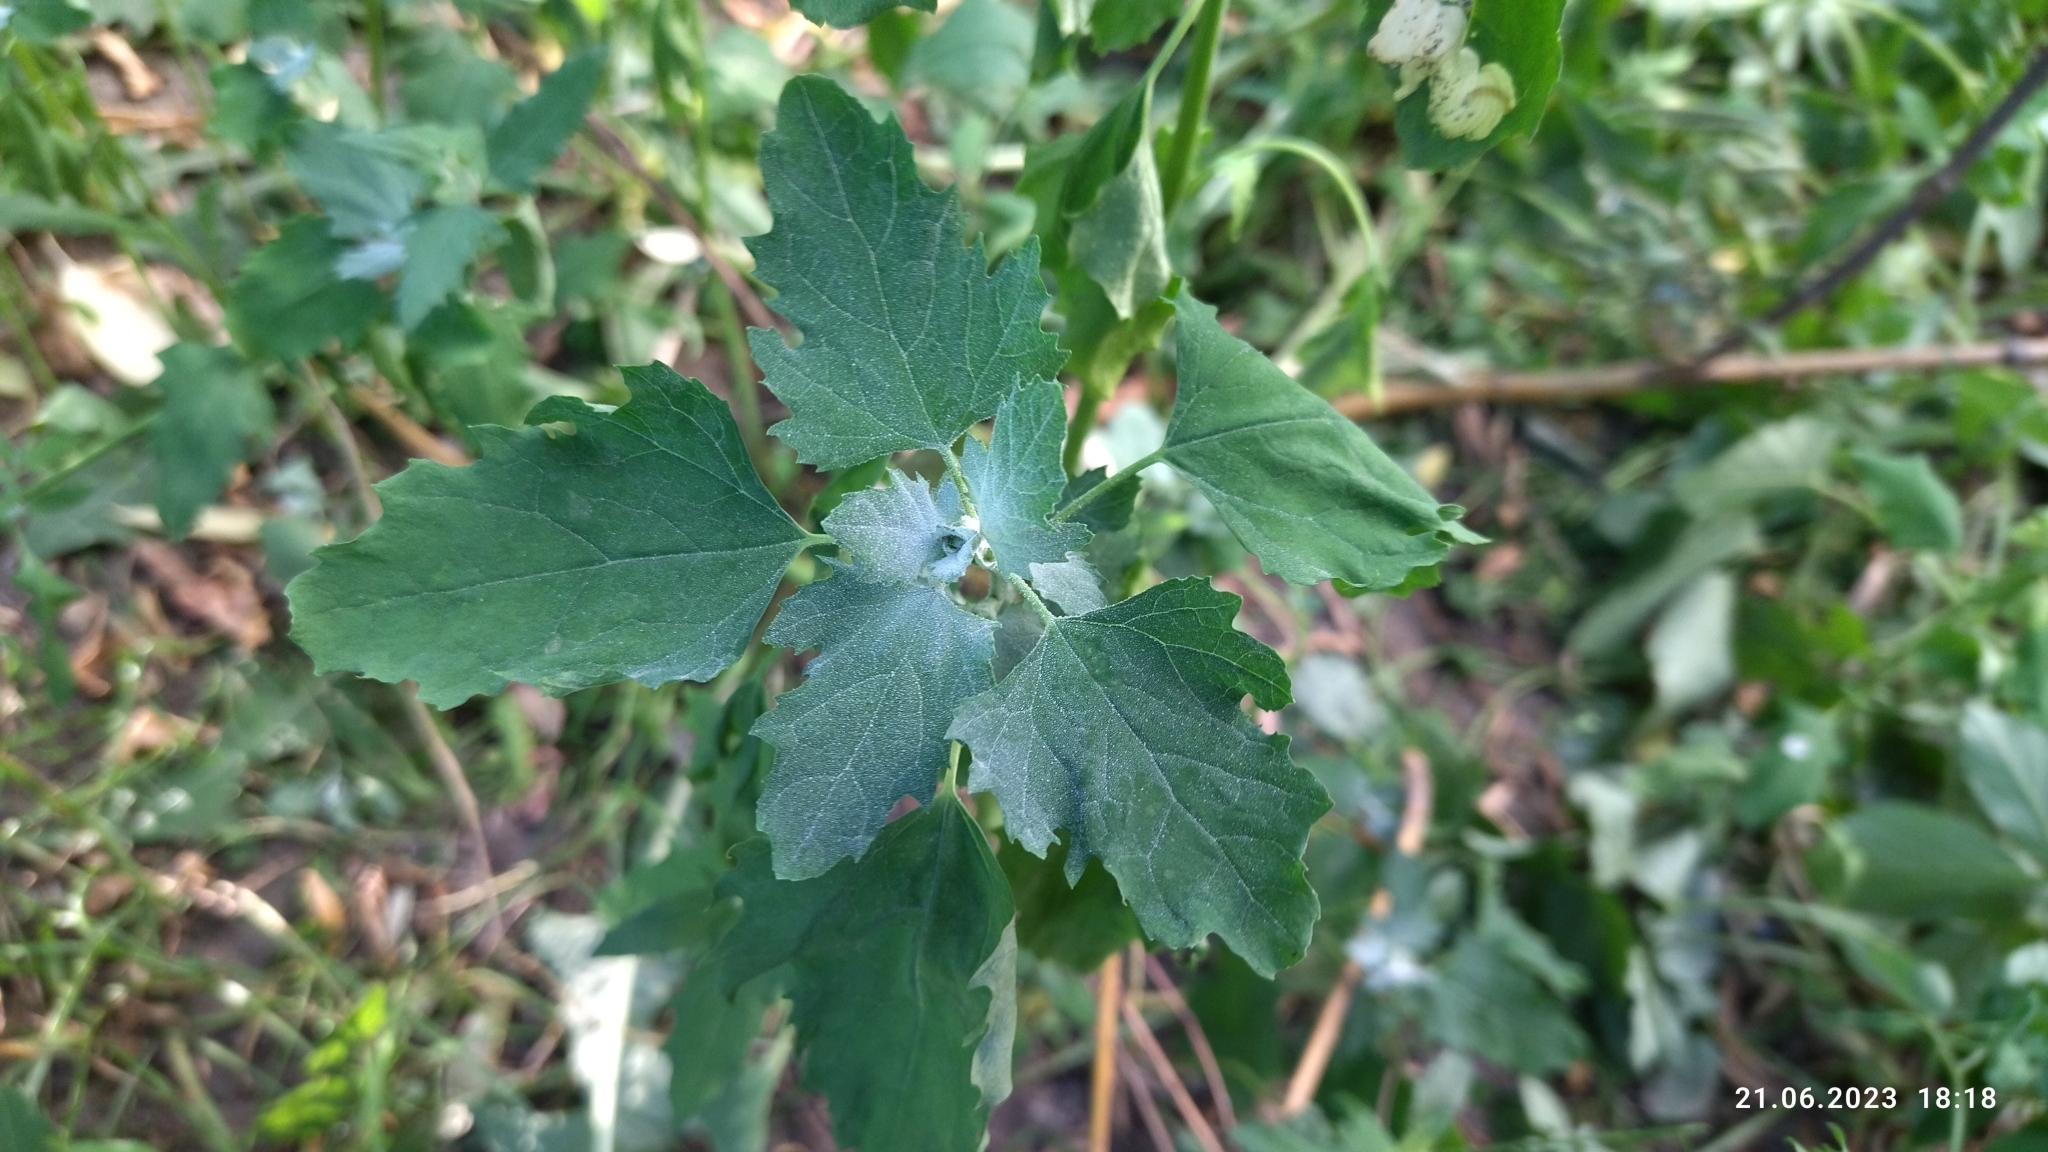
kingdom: Plantae
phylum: Tracheophyta
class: Magnoliopsida
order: Caryophyllales
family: Amaranthaceae
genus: Chenopodium
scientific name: Chenopodium album
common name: Fat-hen
